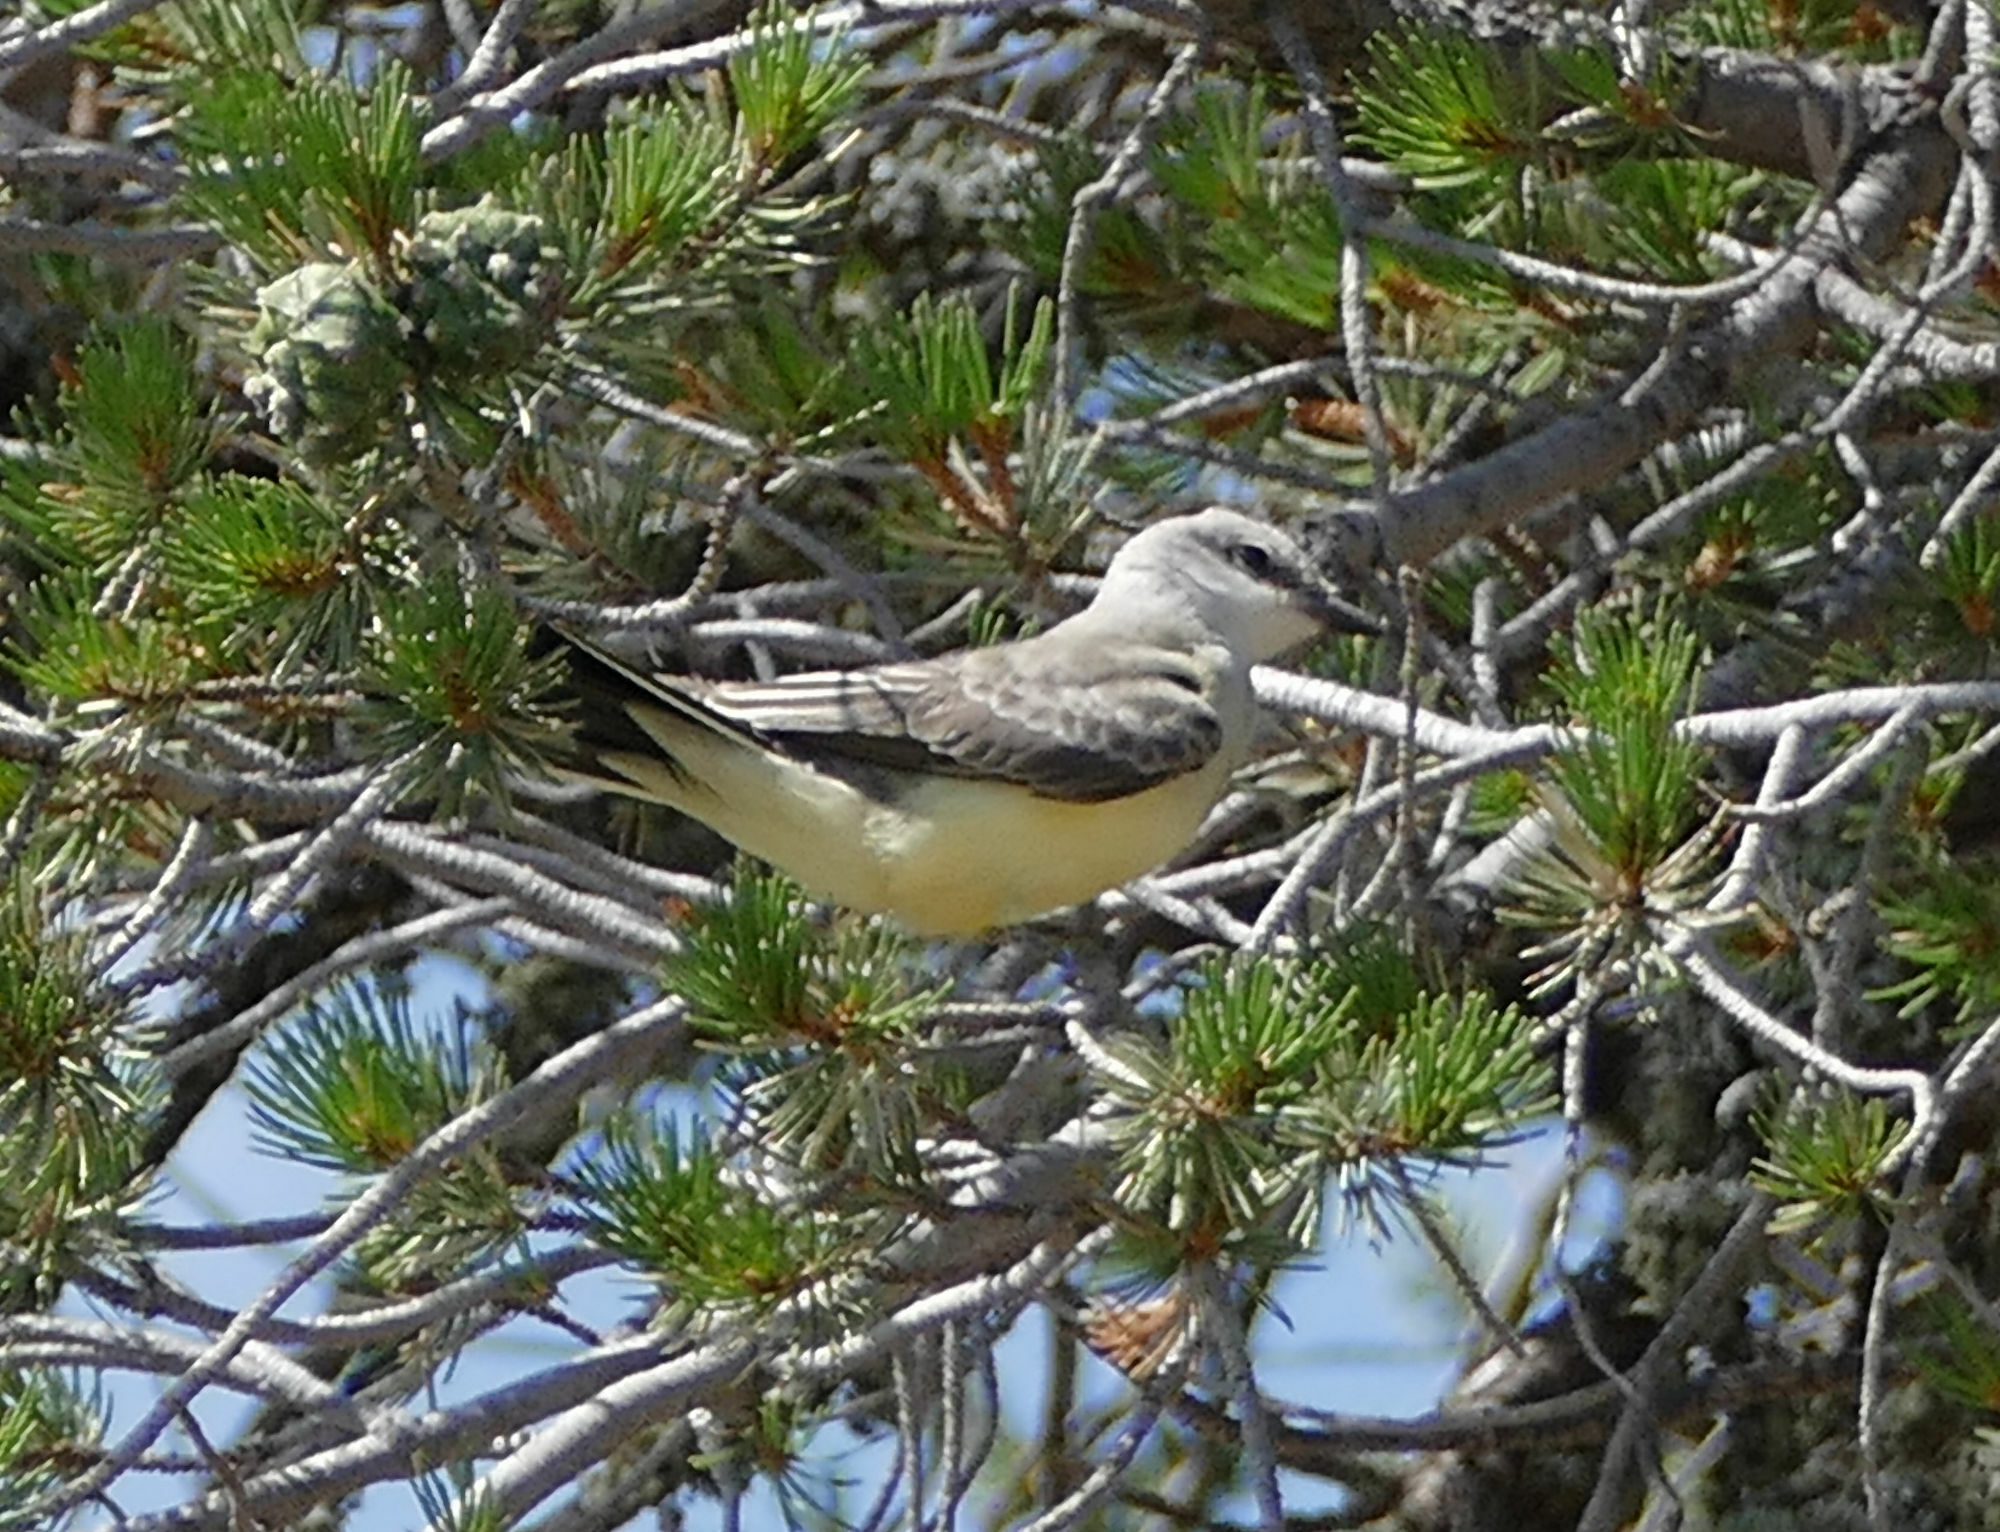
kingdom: Animalia
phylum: Chordata
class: Aves
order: Passeriformes
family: Tyrannidae
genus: Tyrannus
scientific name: Tyrannus verticalis
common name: Western kingbird
